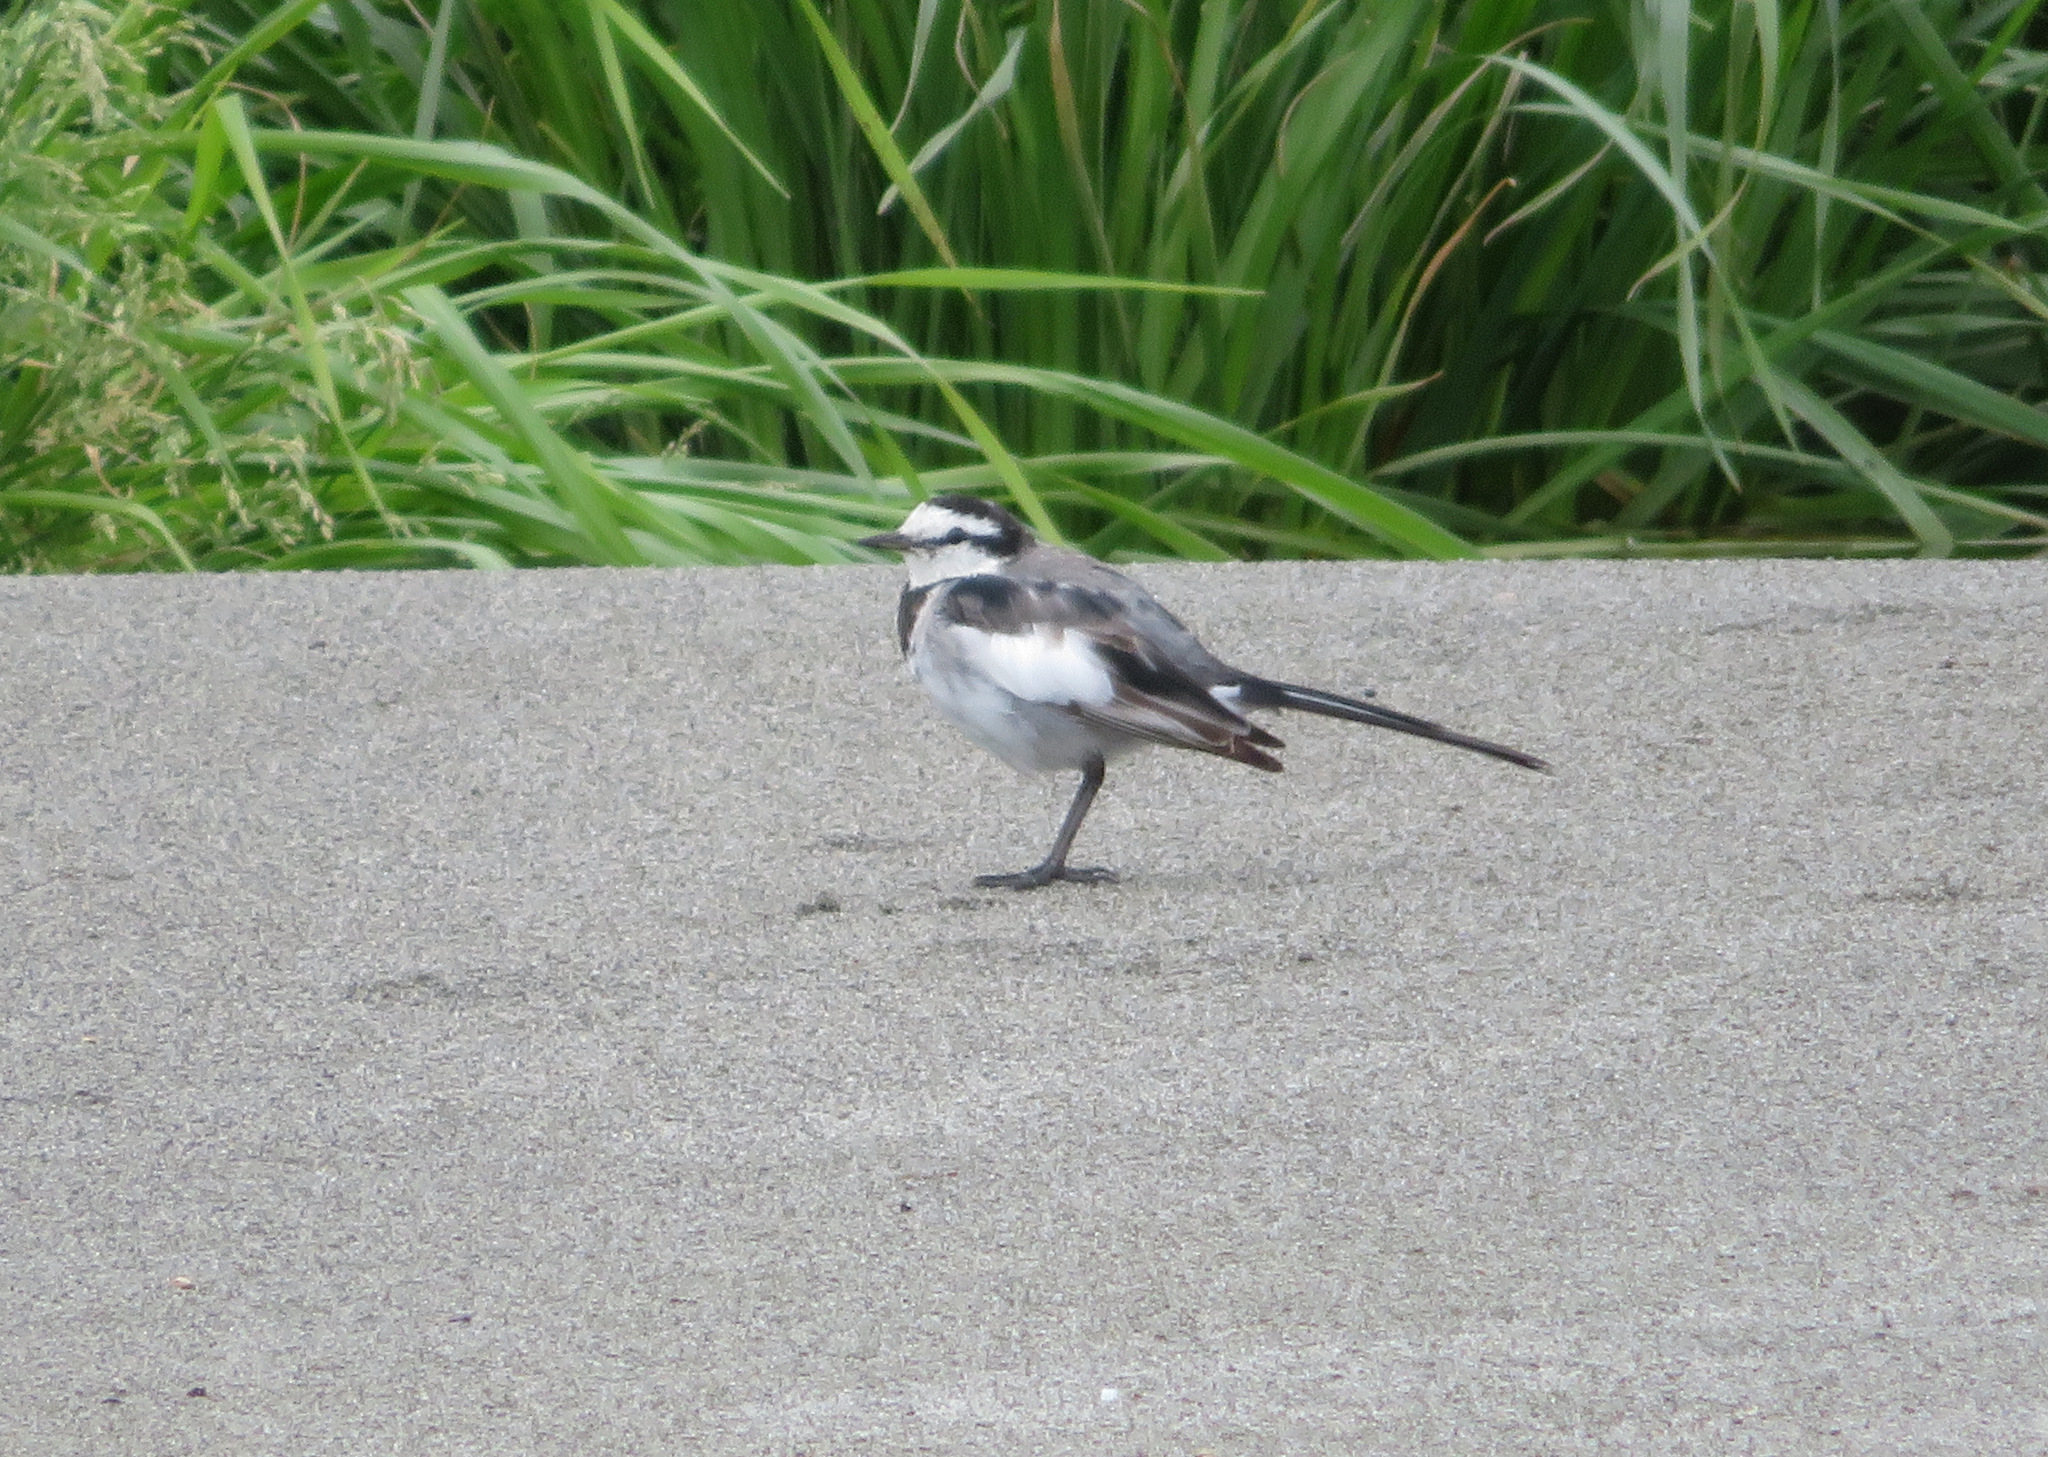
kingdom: Animalia
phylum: Chordata
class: Aves
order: Passeriformes
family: Motacillidae
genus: Motacilla
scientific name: Motacilla alba
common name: White wagtail
